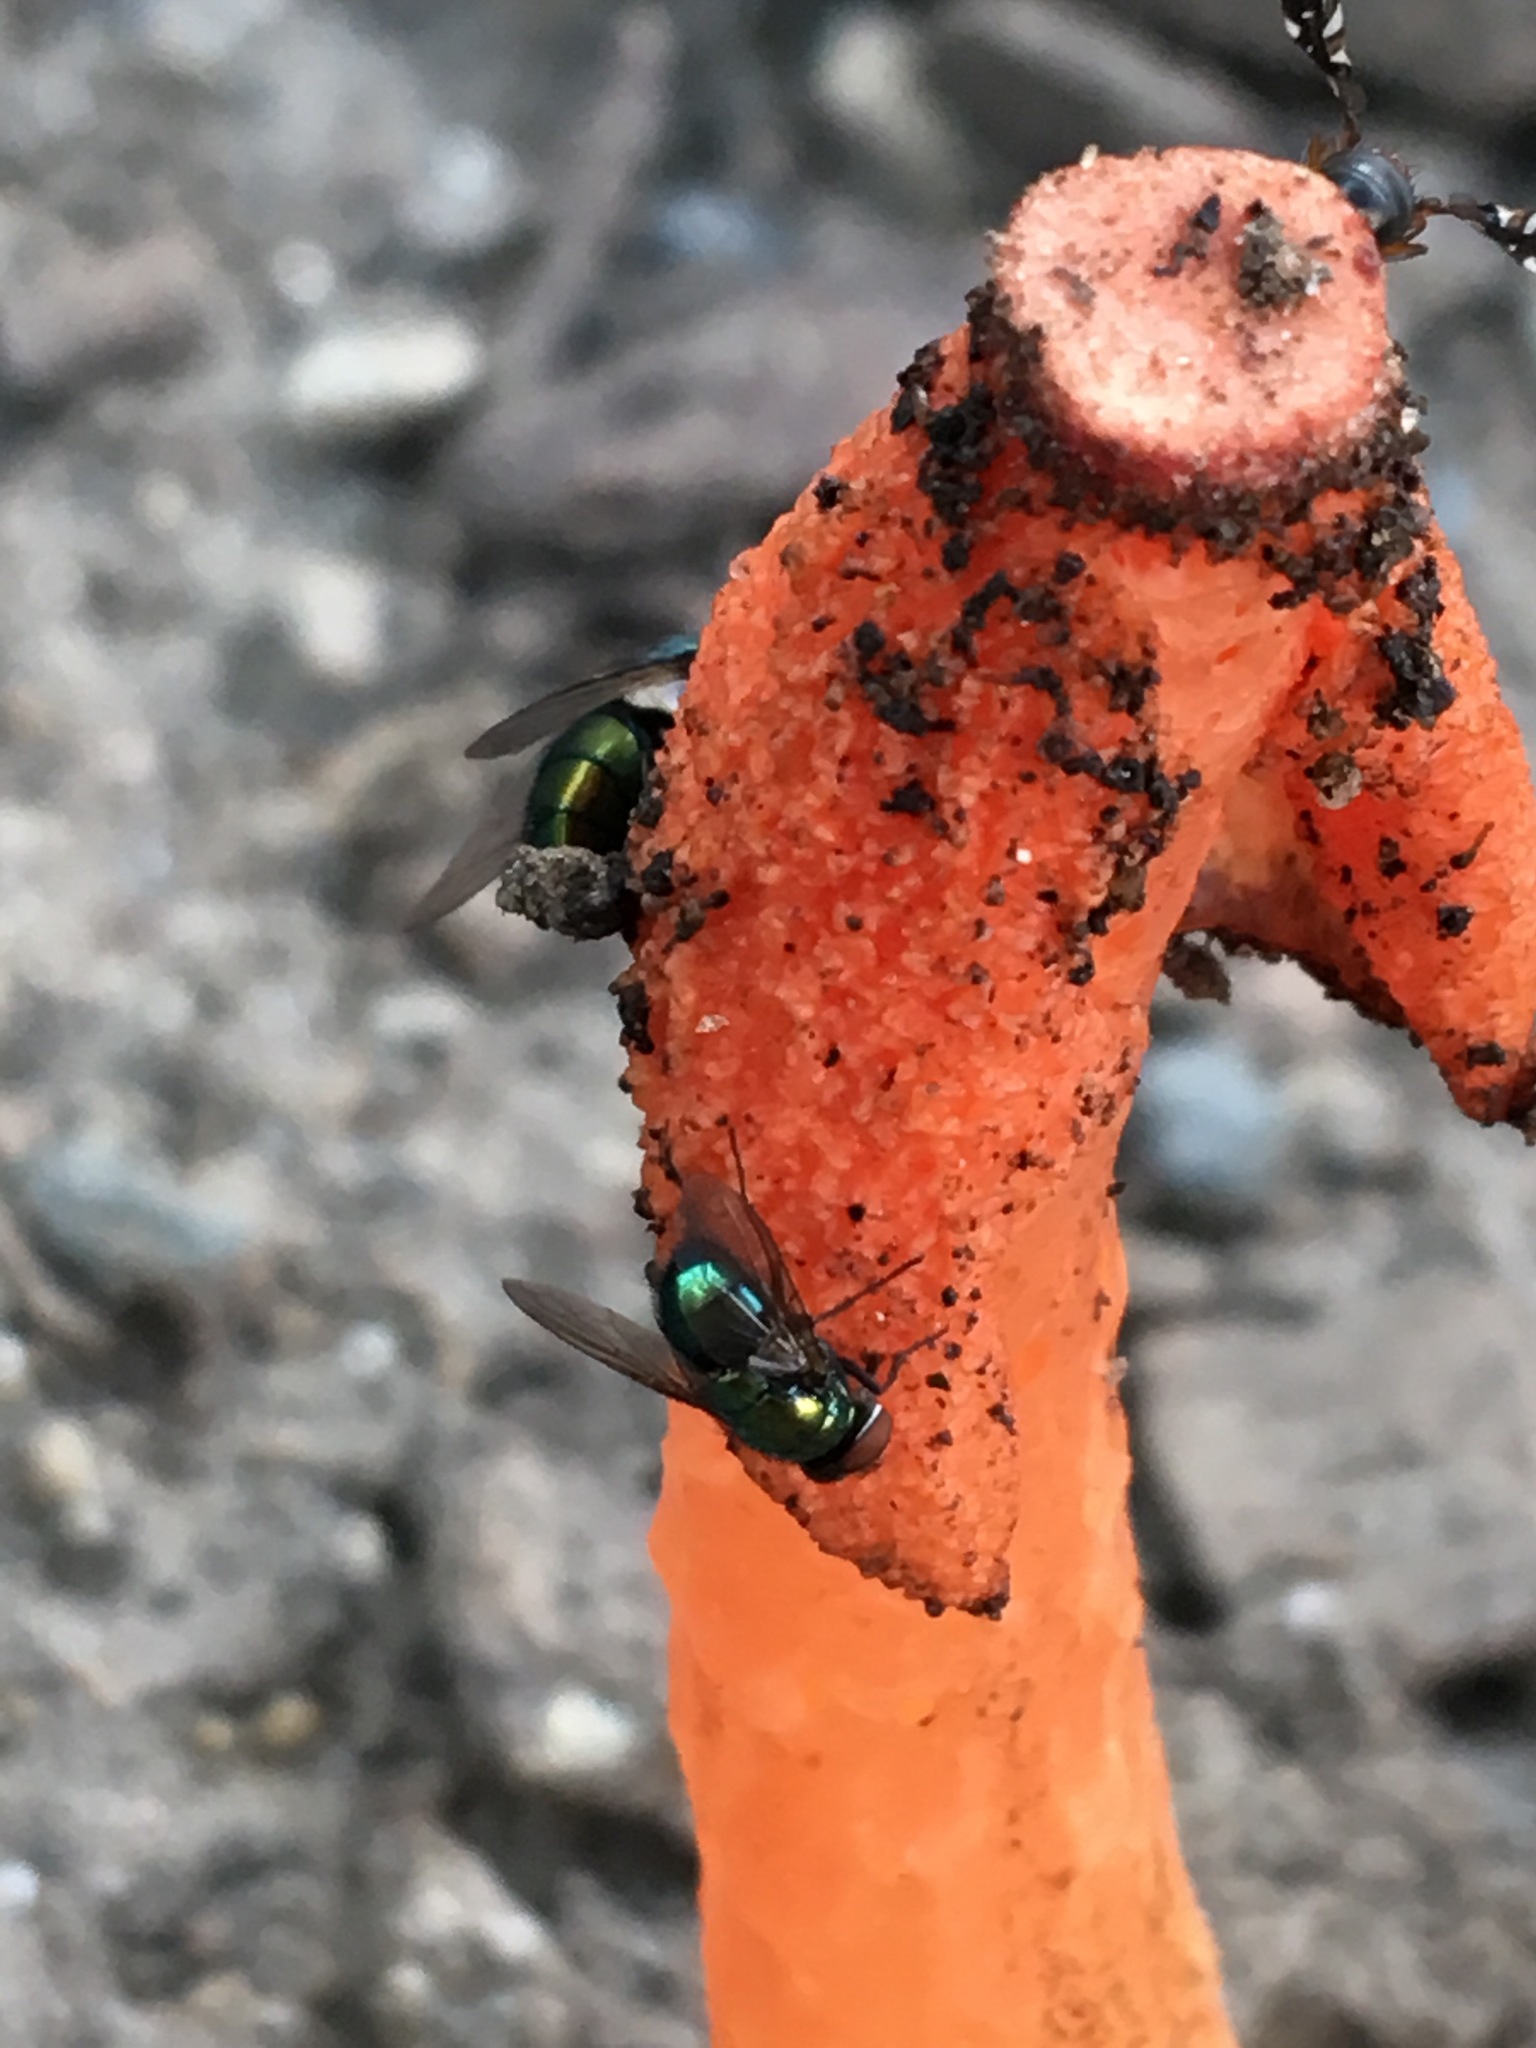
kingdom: Animalia
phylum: Arthropoda
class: Insecta
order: Diptera
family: Calliphoridae
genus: Lucilia
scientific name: Lucilia sericata
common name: Blow fly
